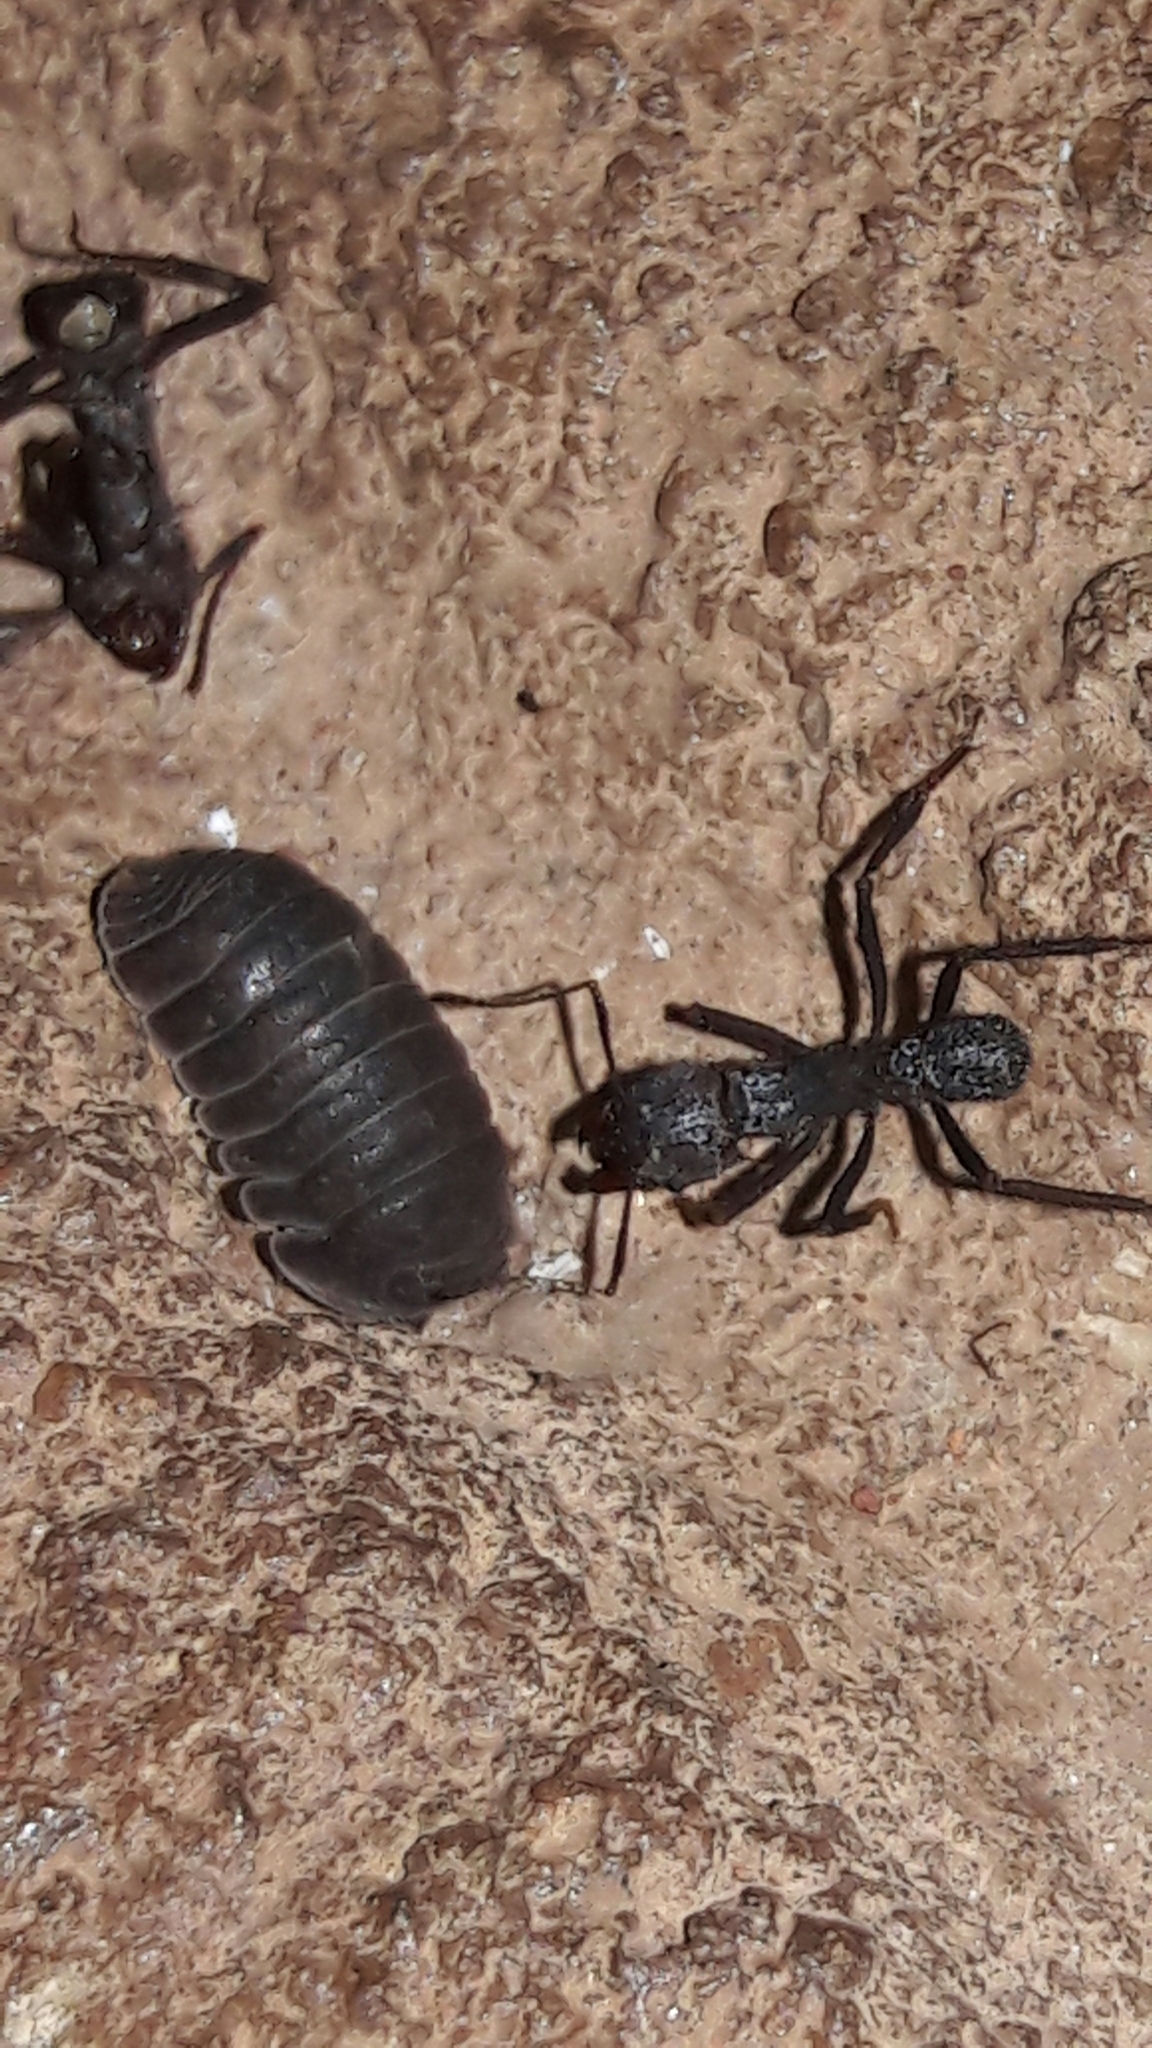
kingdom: Animalia
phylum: Arthropoda
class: Malacostraca
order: Isopoda
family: Armadillidae
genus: Cubaris
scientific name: Cubaris murina
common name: Pillbug
